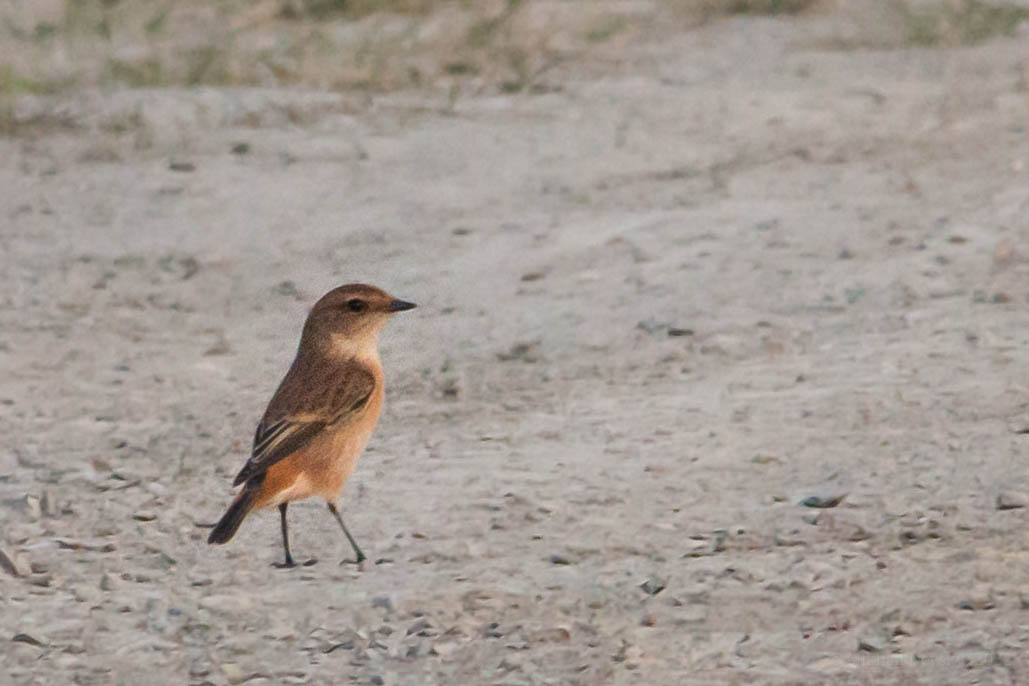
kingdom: Animalia
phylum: Chordata
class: Aves
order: Passeriformes
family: Muscicapidae
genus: Saxicola
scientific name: Saxicola stejnegeri
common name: Stejneger's stonechat
